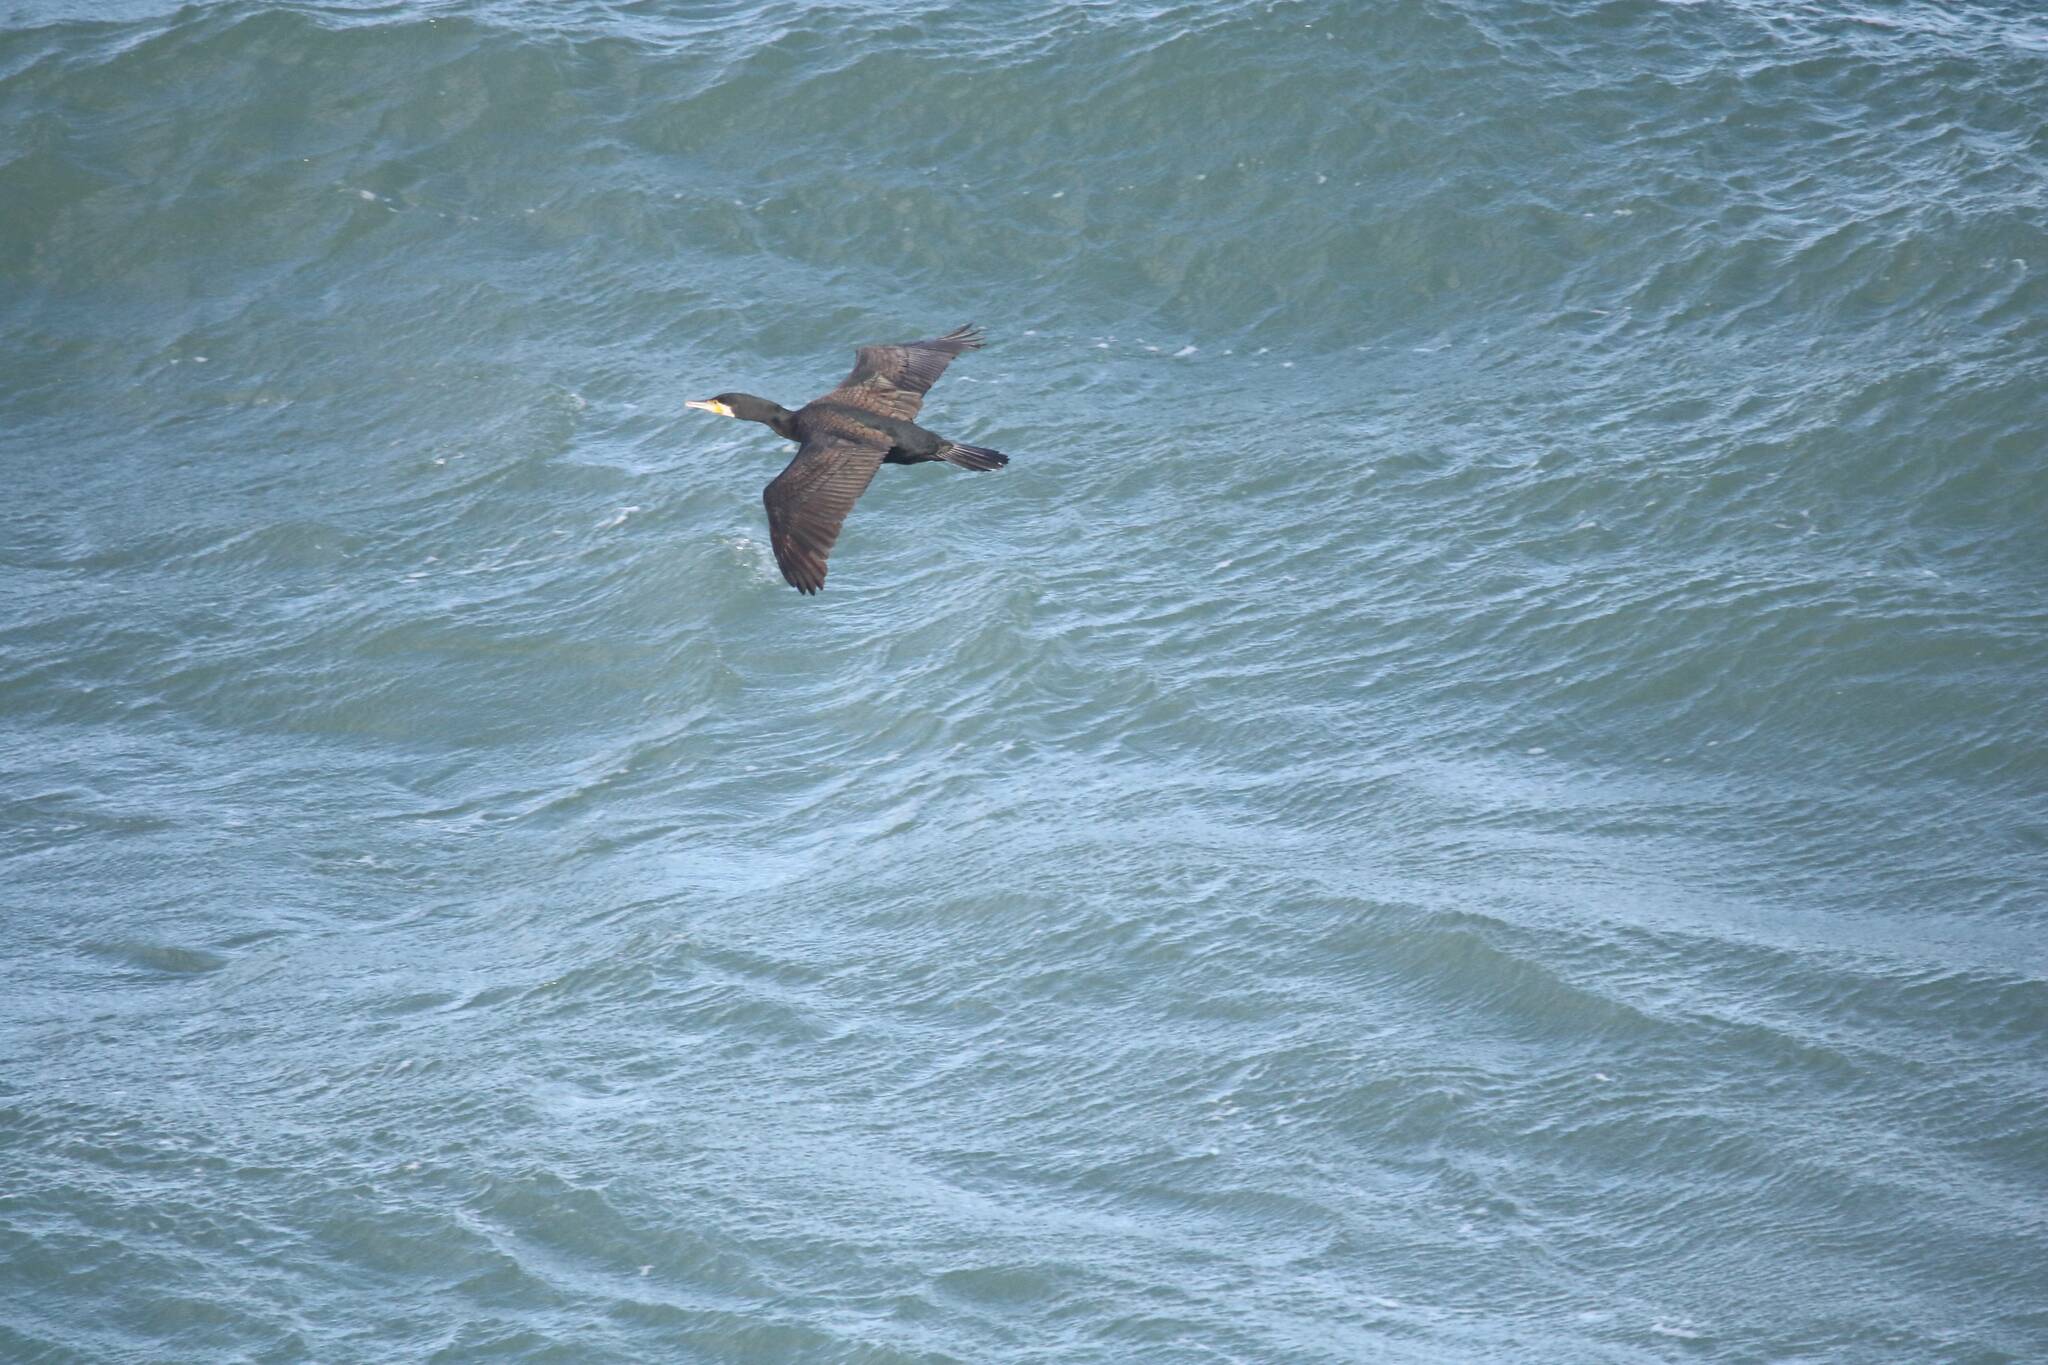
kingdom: Animalia
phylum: Chordata
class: Aves
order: Suliformes
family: Phalacrocoracidae
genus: Phalacrocorax
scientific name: Phalacrocorax carbo
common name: Great cormorant
